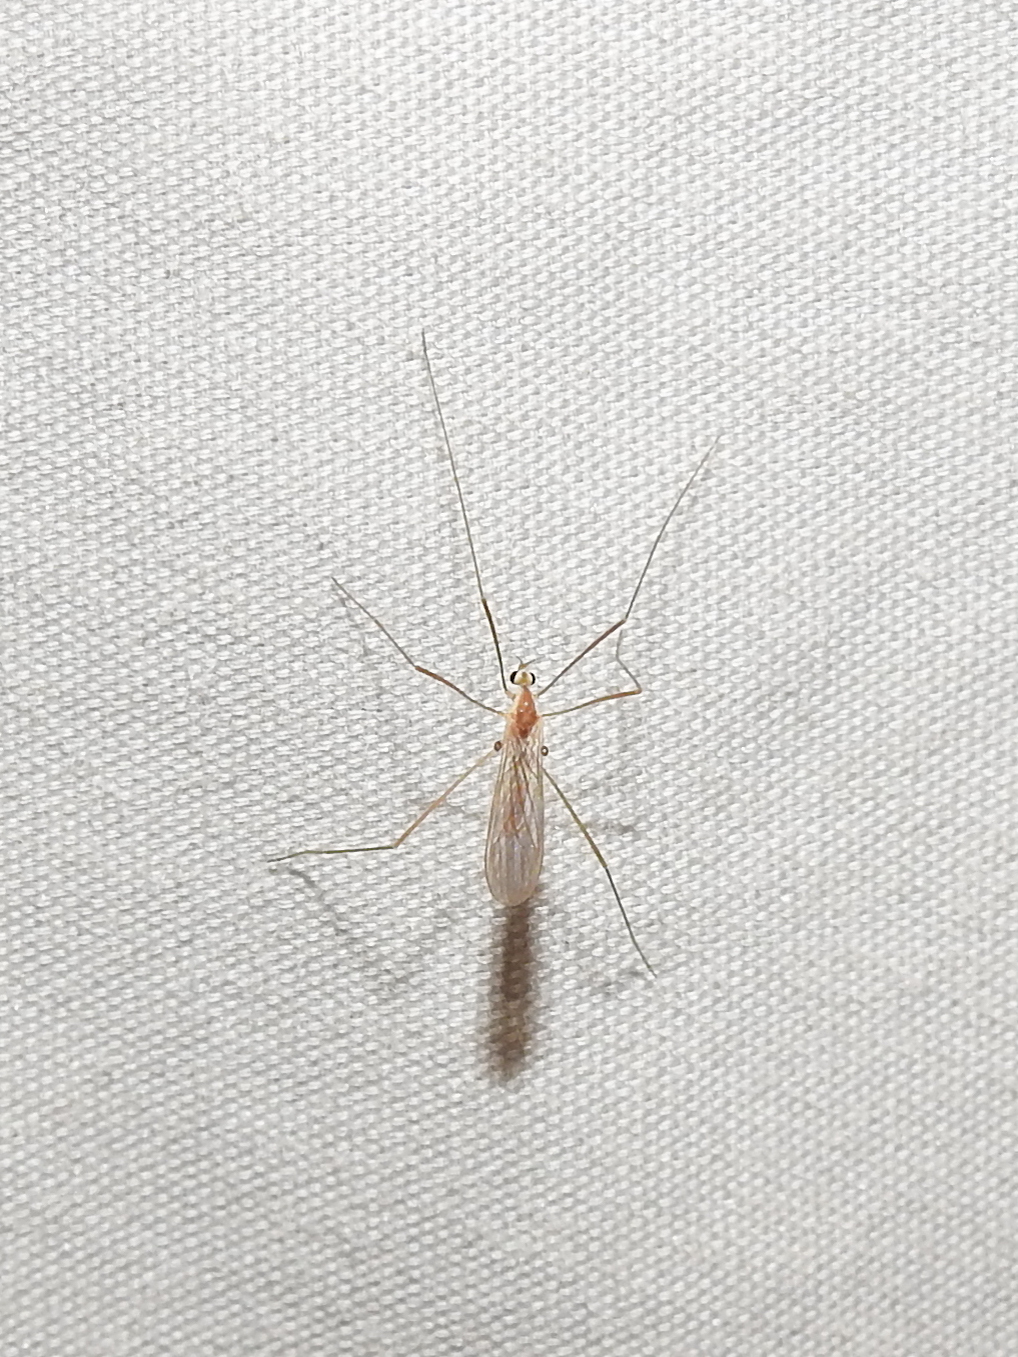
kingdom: Animalia
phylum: Arthropoda
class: Insecta
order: Diptera
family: Limoniidae
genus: Erioptera
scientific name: Erioptera septemtrionis
